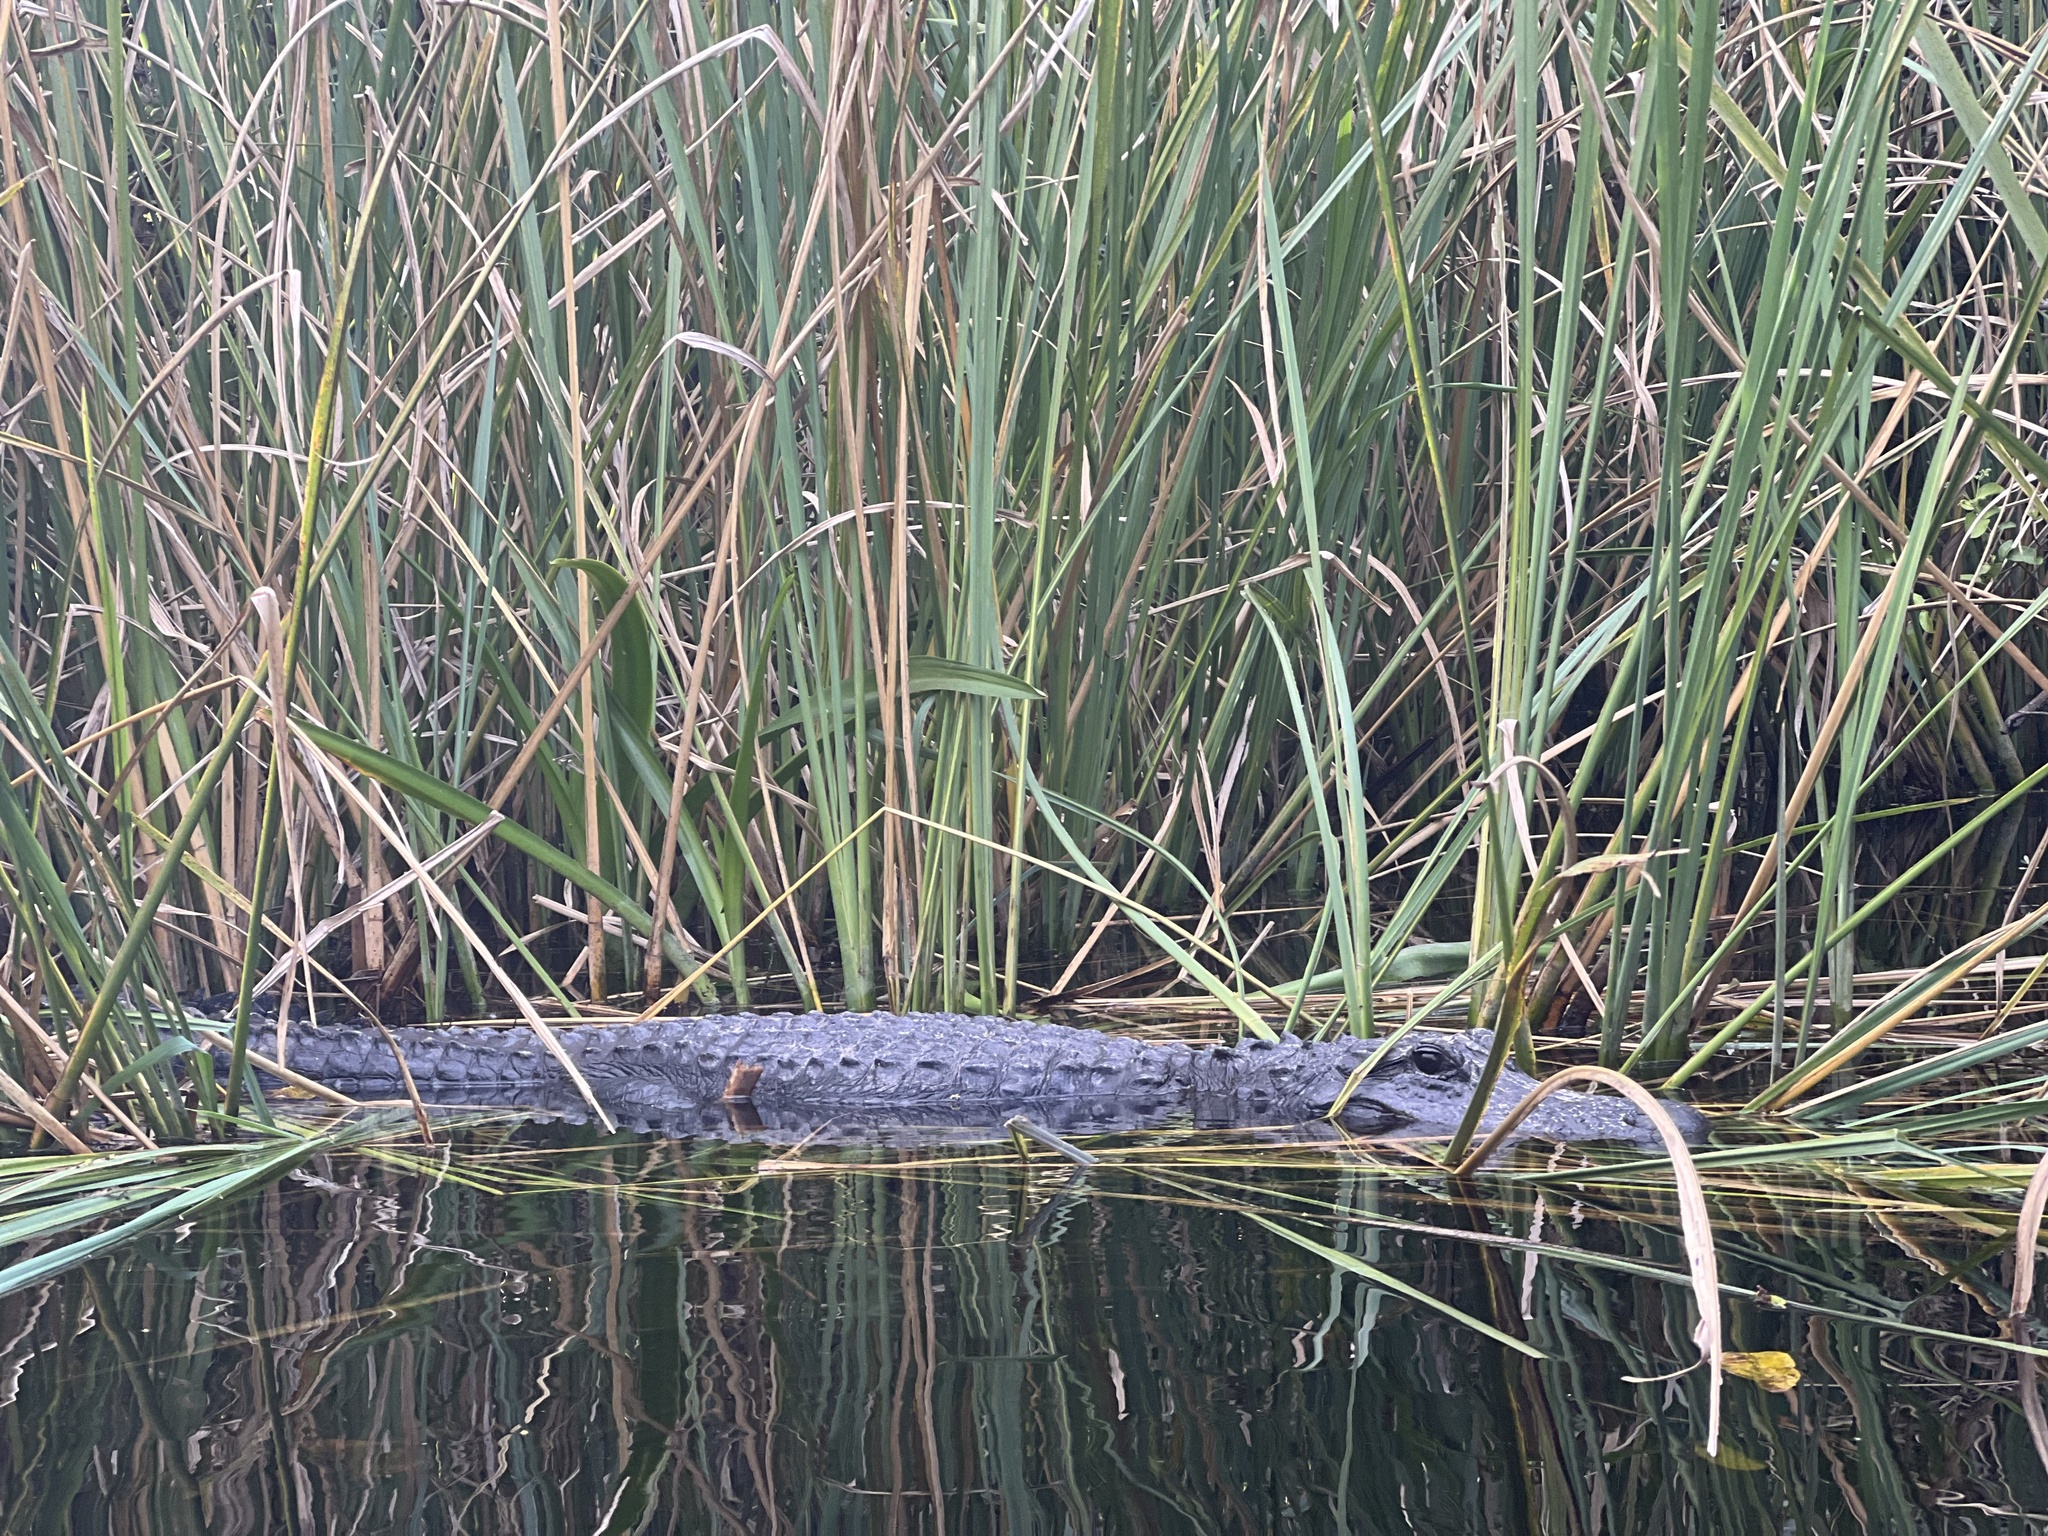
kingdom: Animalia
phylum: Chordata
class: Crocodylia
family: Alligatoridae
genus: Alligator
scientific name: Alligator mississippiensis
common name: American alligator
